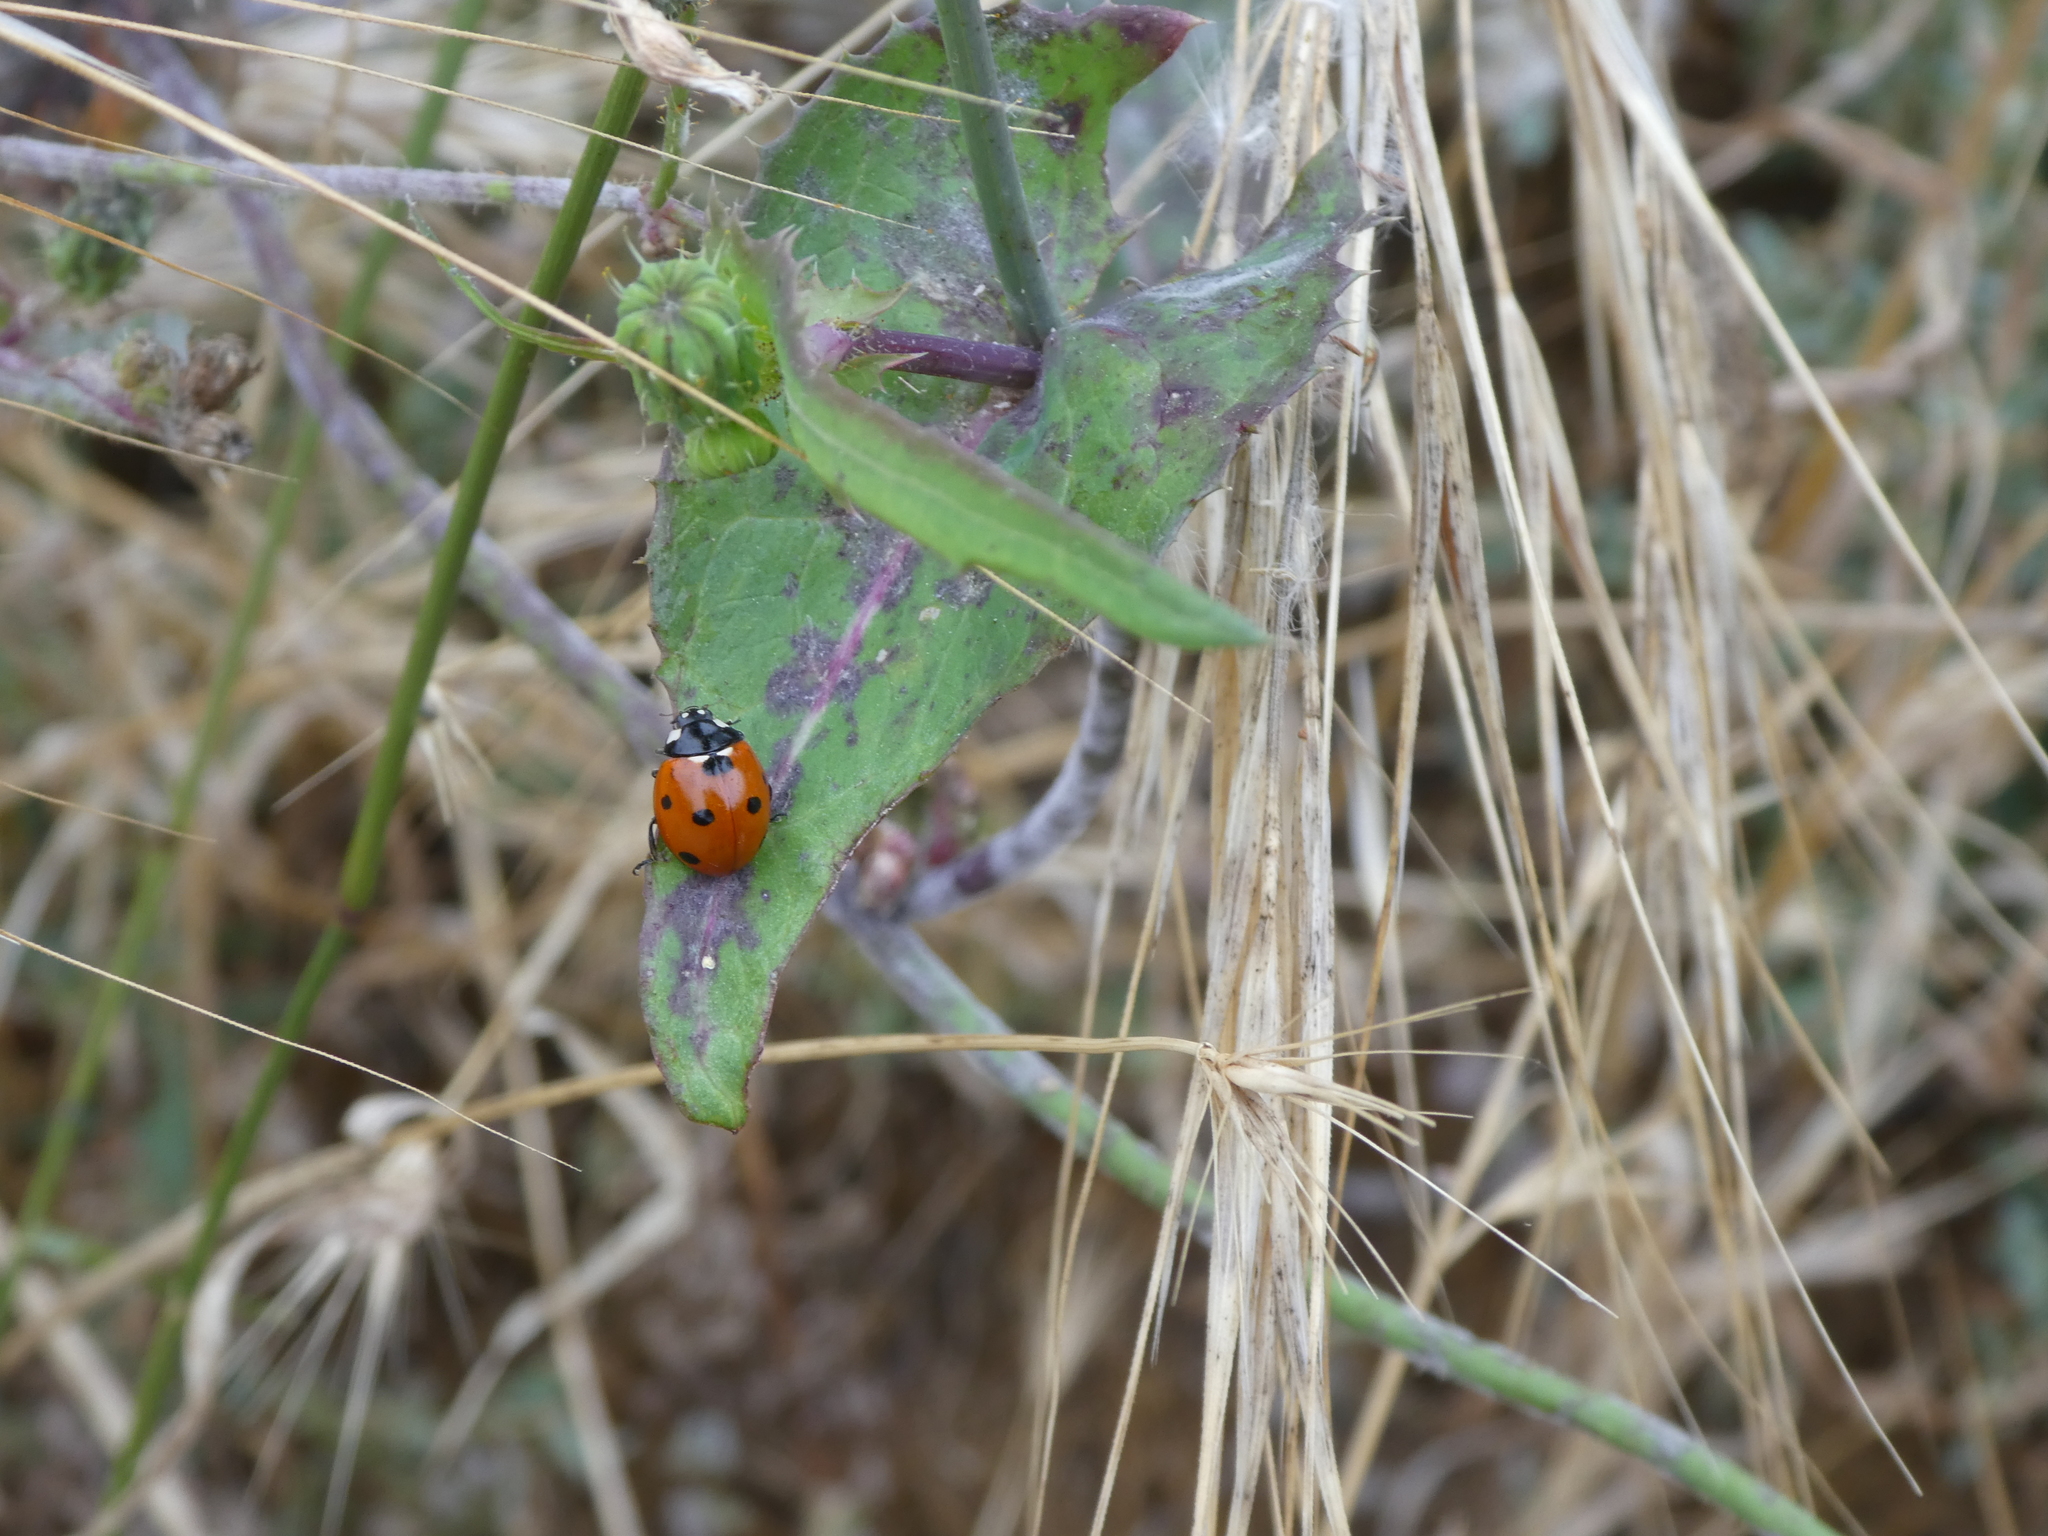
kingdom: Animalia
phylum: Arthropoda
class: Insecta
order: Coleoptera
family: Coccinellidae
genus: Coccinella
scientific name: Coccinella septempunctata
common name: Sevenspotted lady beetle
